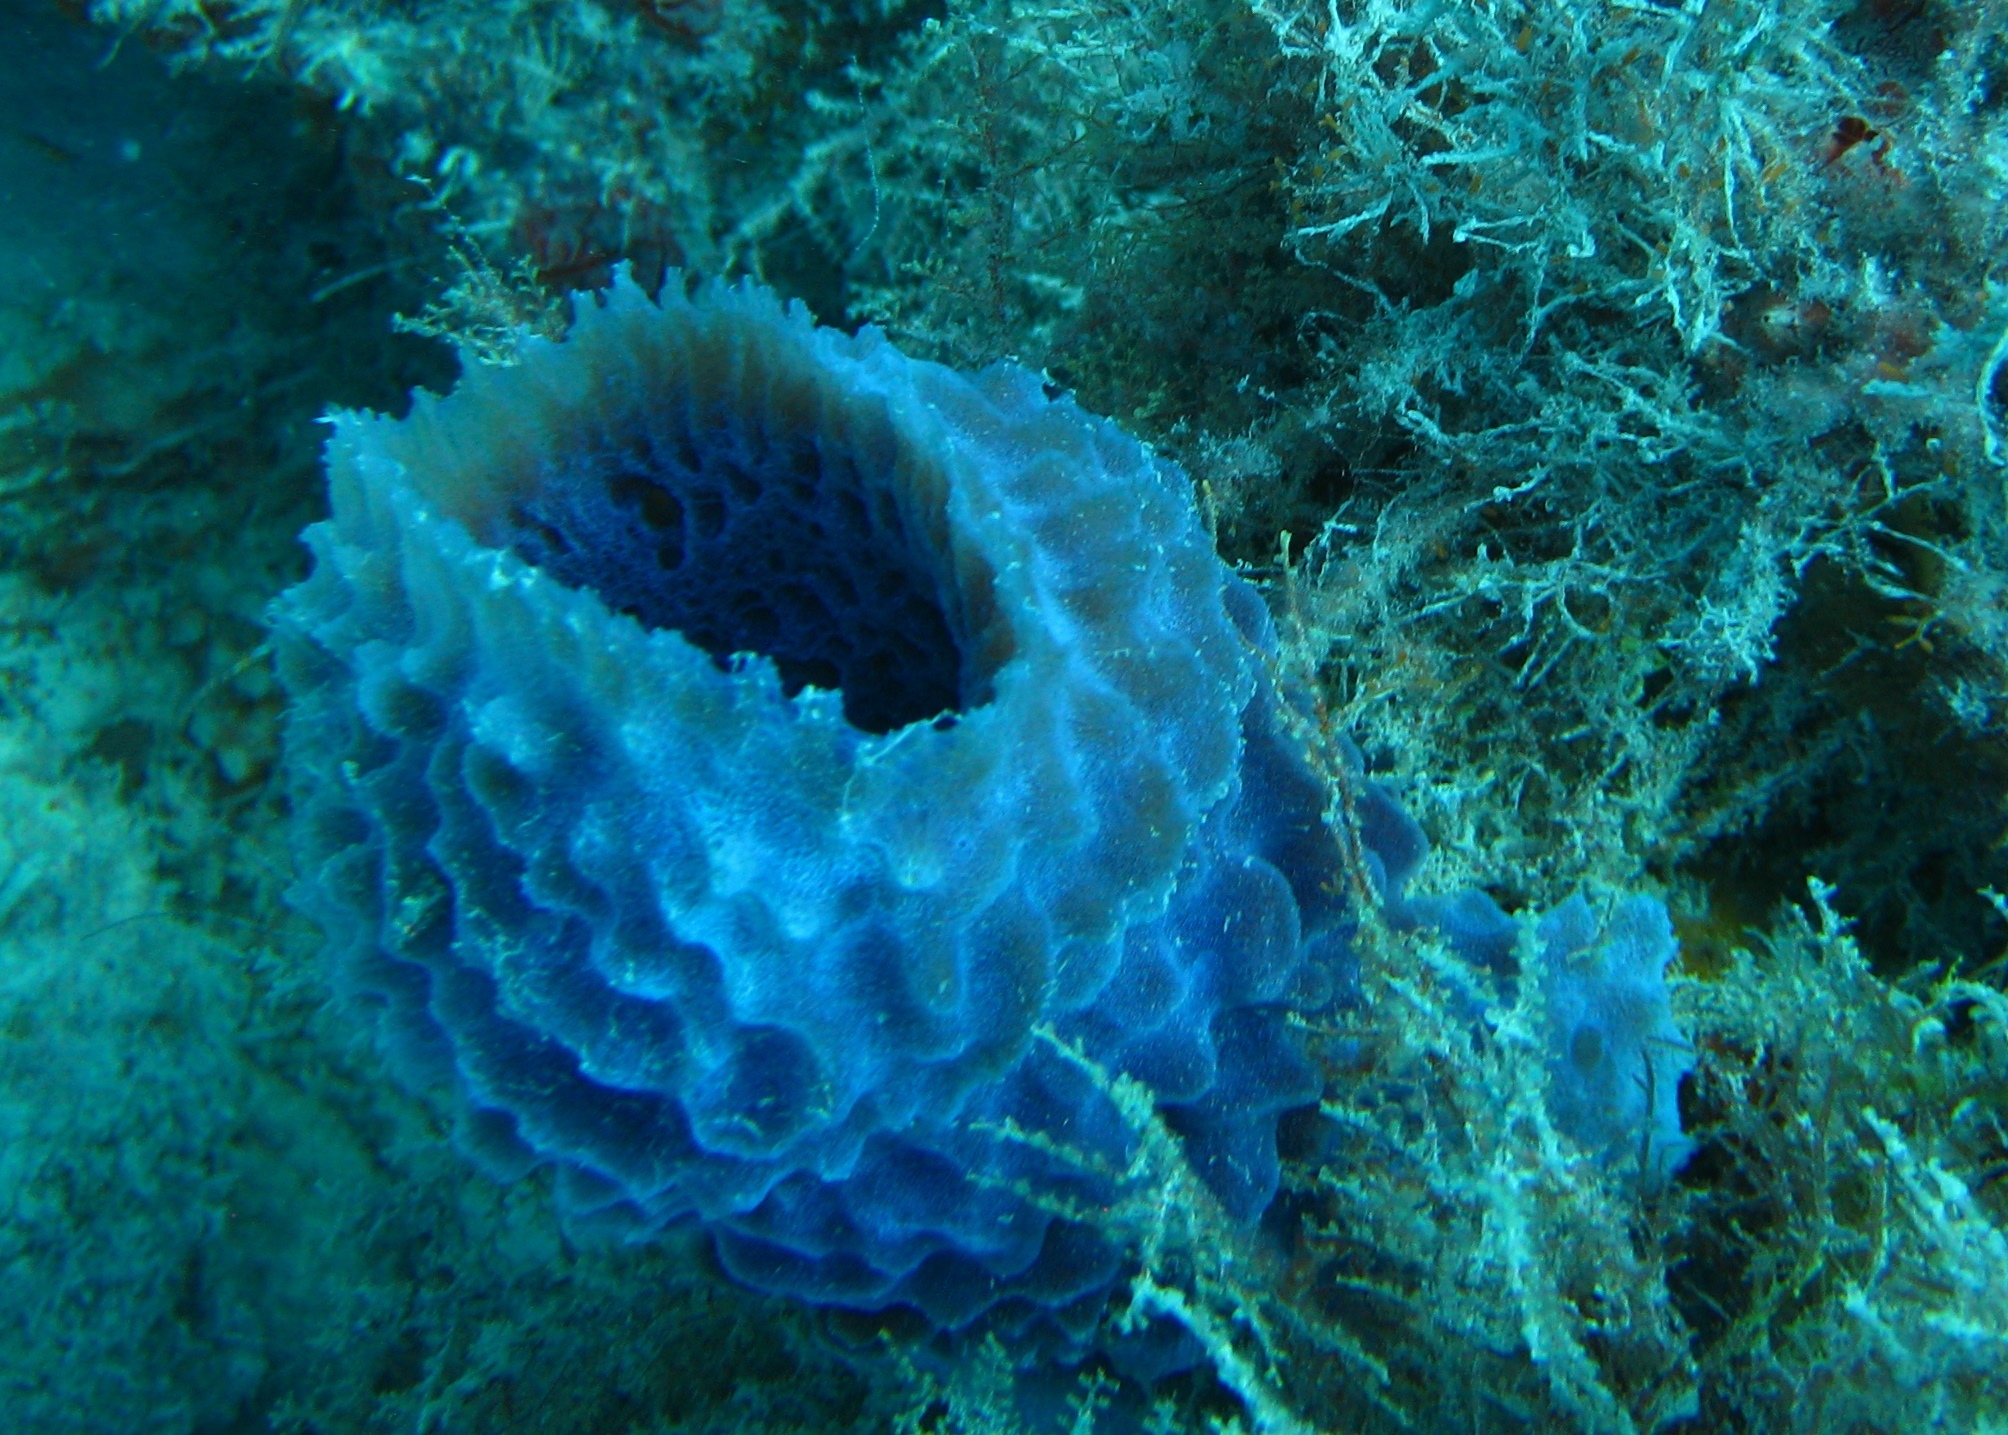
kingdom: Animalia
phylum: Porifera
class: Demospongiae
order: Haplosclerida
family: Callyspongiidae
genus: Callyspongia
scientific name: Callyspongia plicifera
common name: Azure vase sponge
